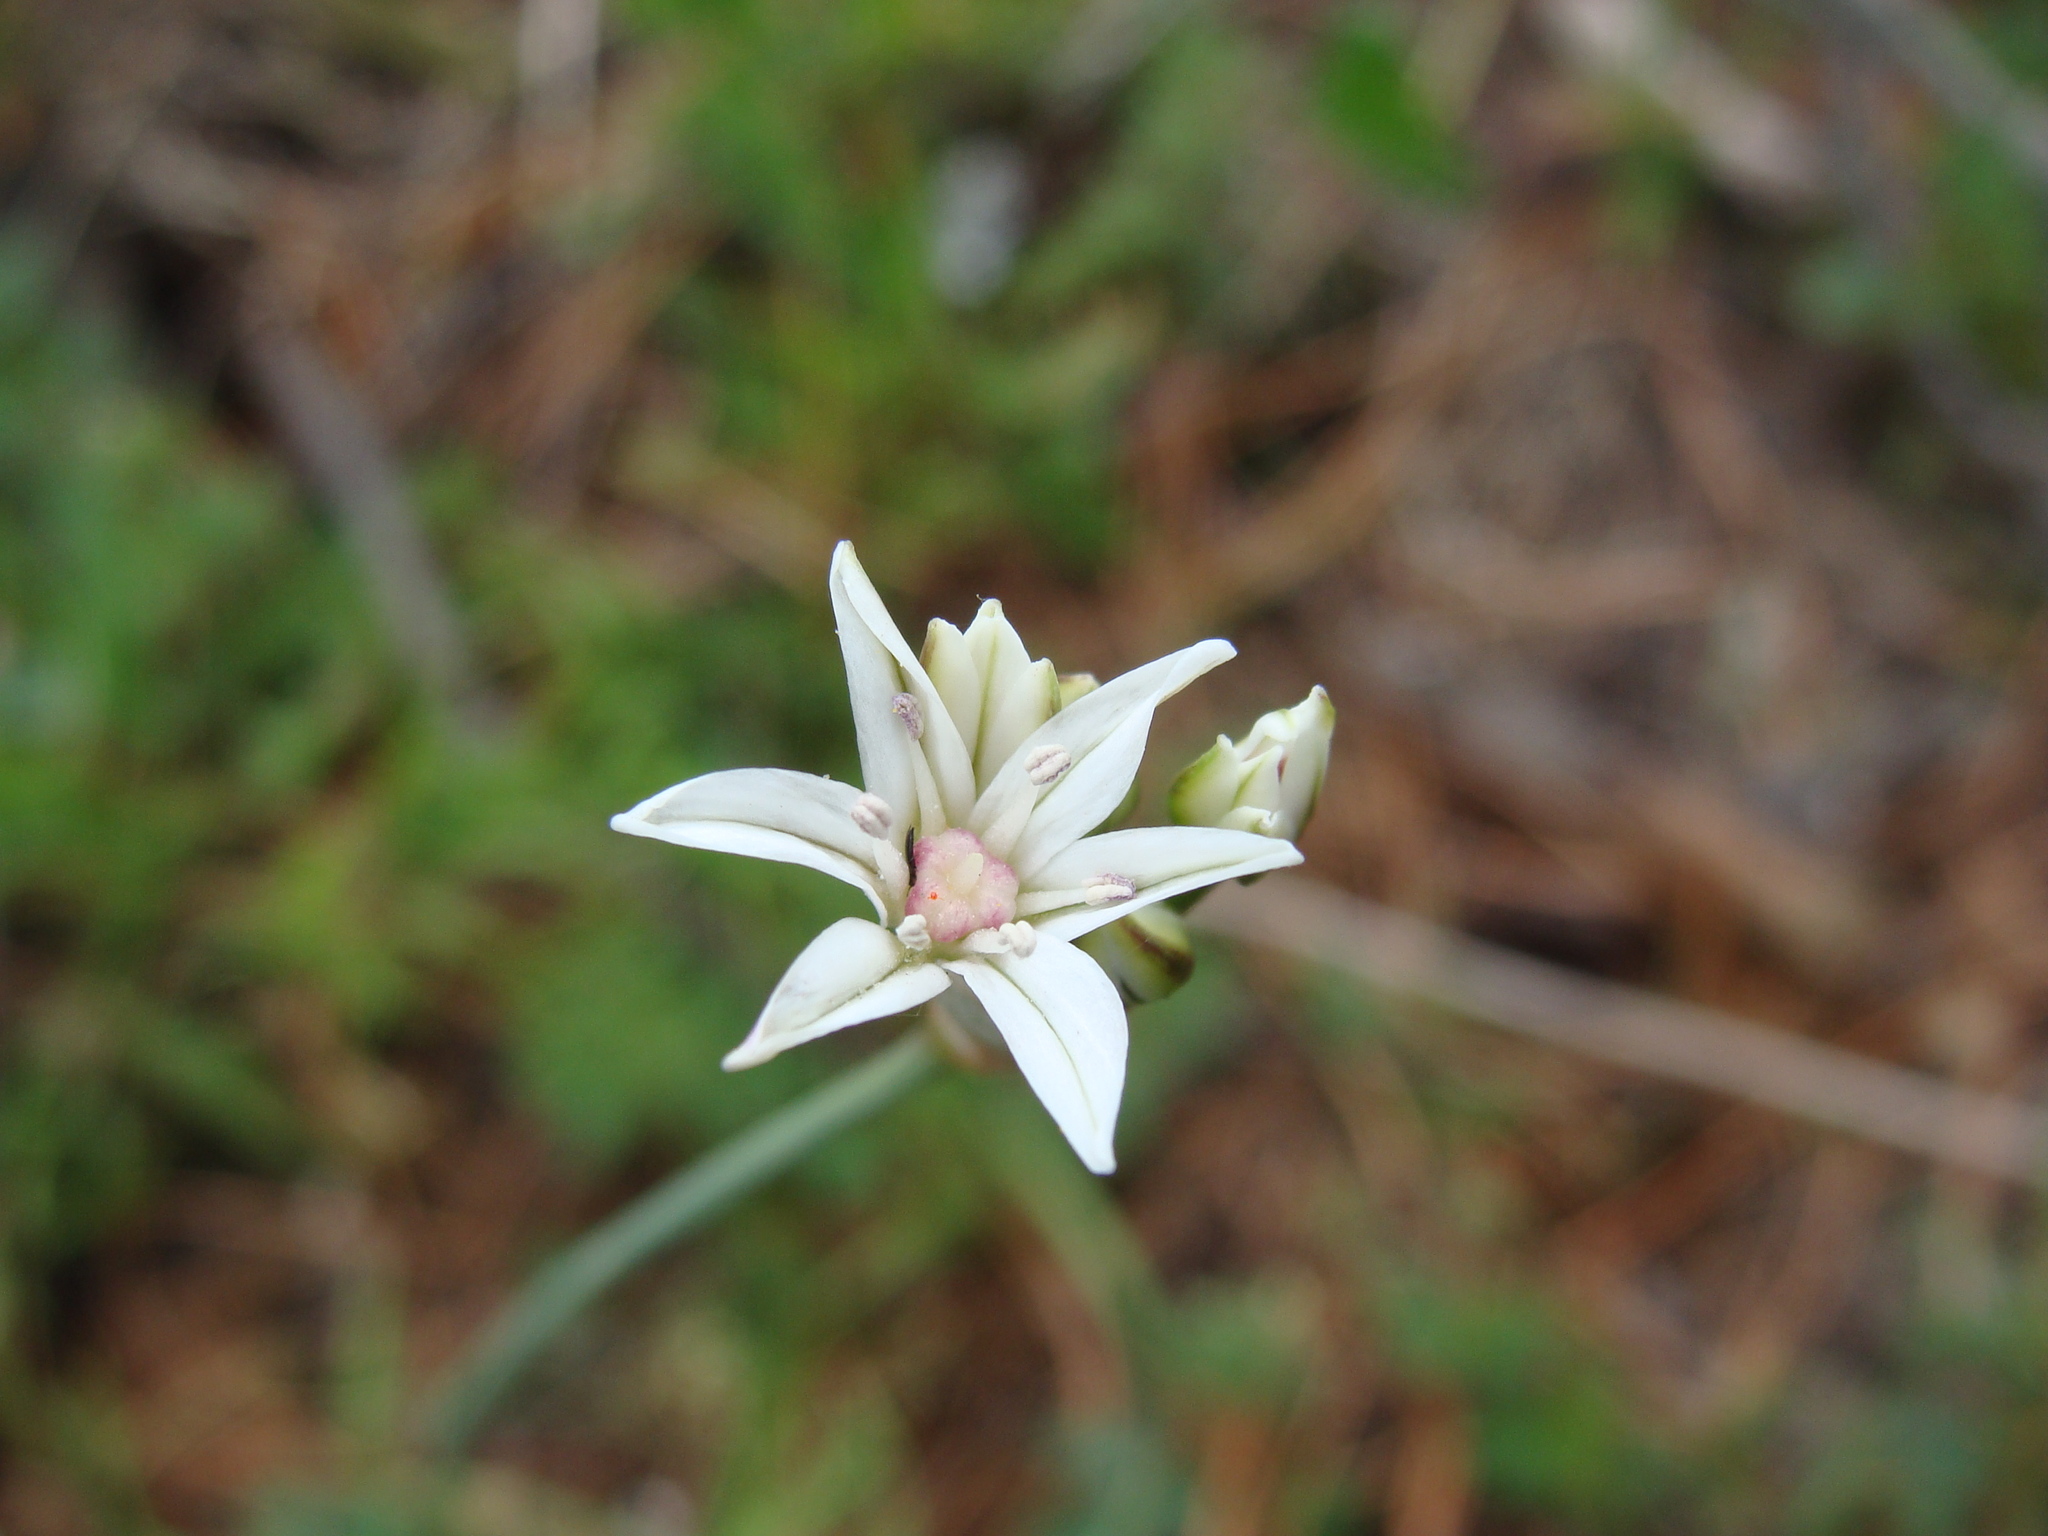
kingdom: Plantae
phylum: Tracheophyta
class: Liliopsida
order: Asparagales
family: Amaryllidaceae
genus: Allium
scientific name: Allium glandulosum
